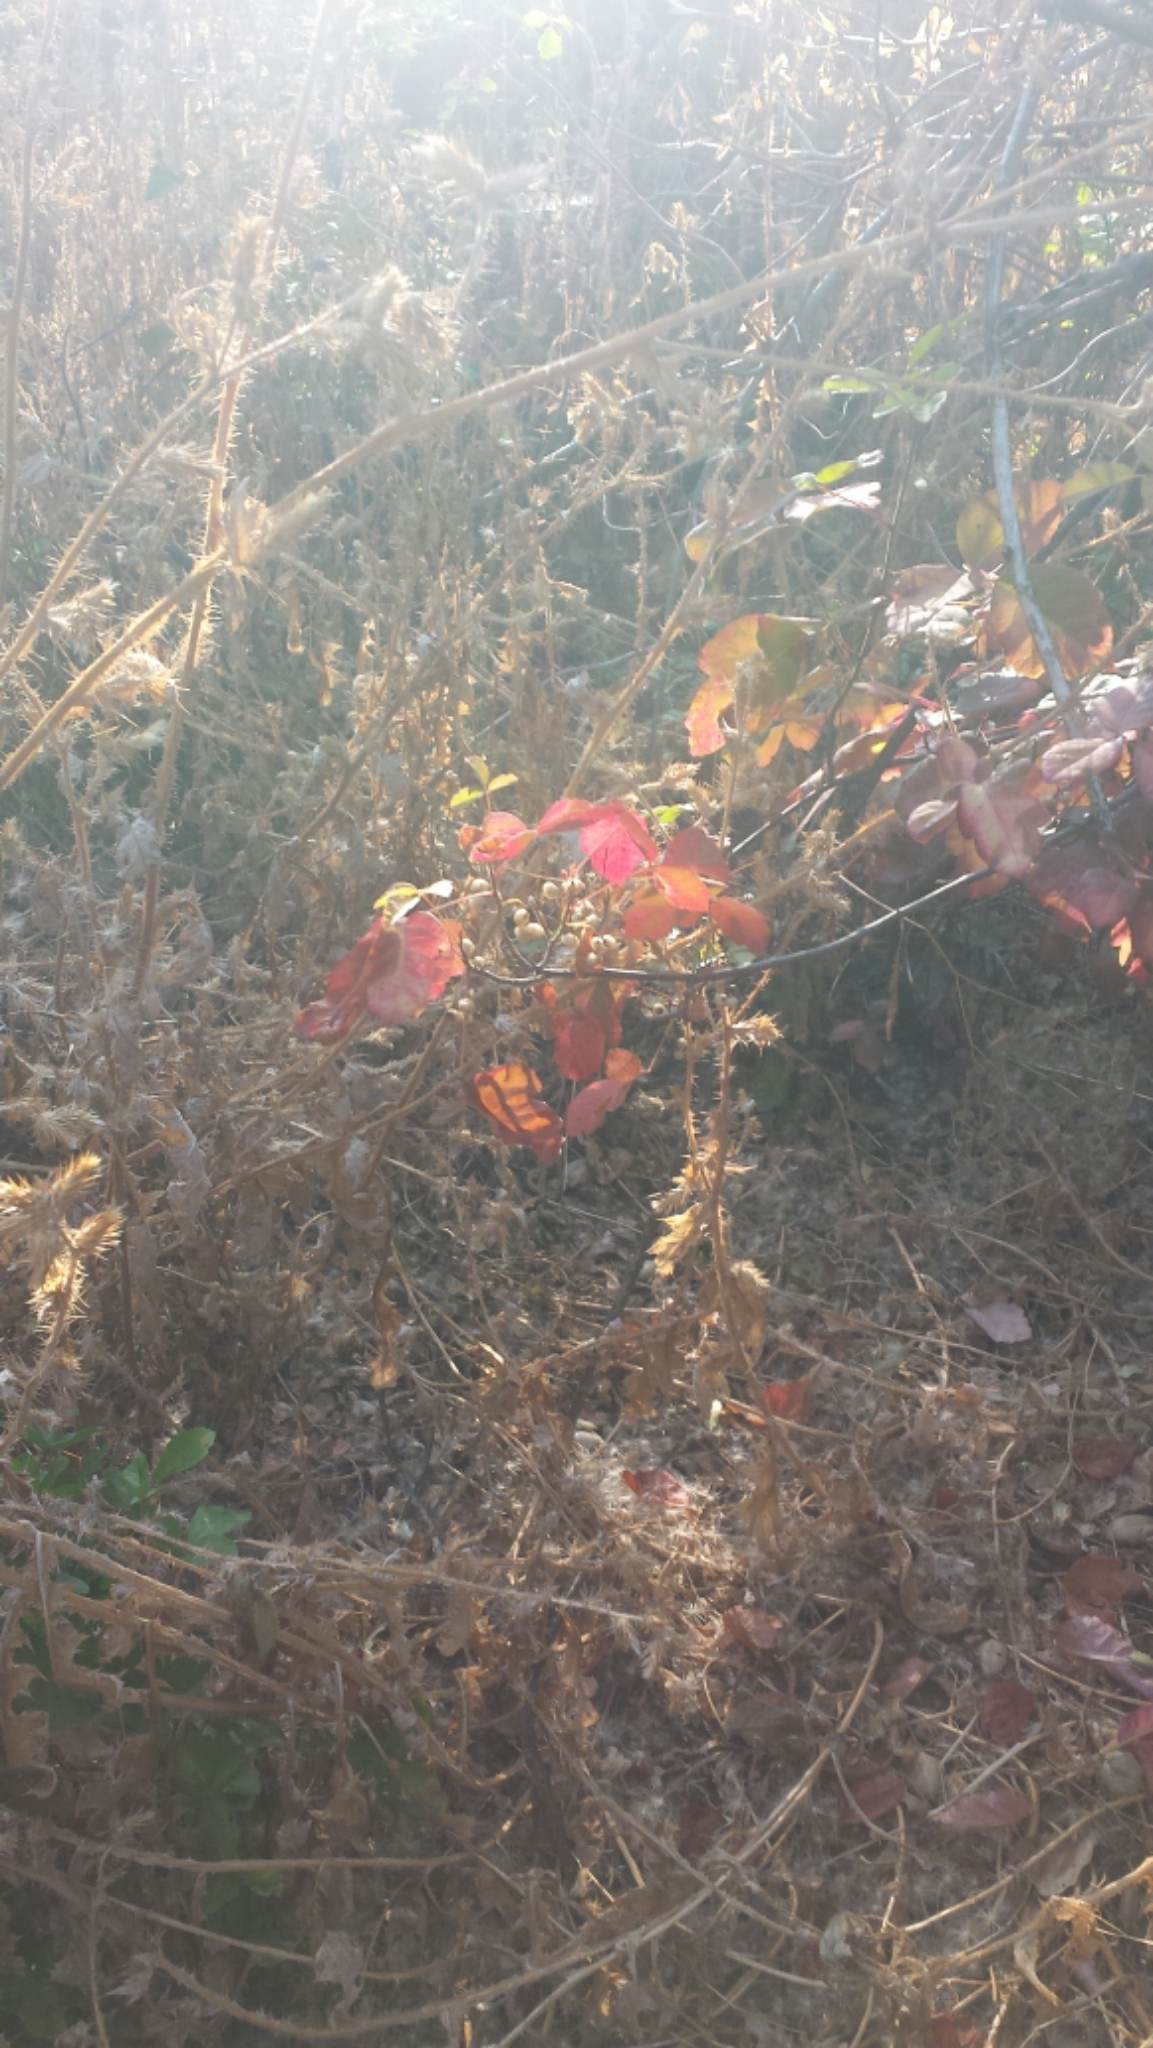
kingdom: Plantae
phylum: Tracheophyta
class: Magnoliopsida
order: Sapindales
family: Anacardiaceae
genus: Toxicodendron
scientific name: Toxicodendron diversilobum
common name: Pacific poison-oak
